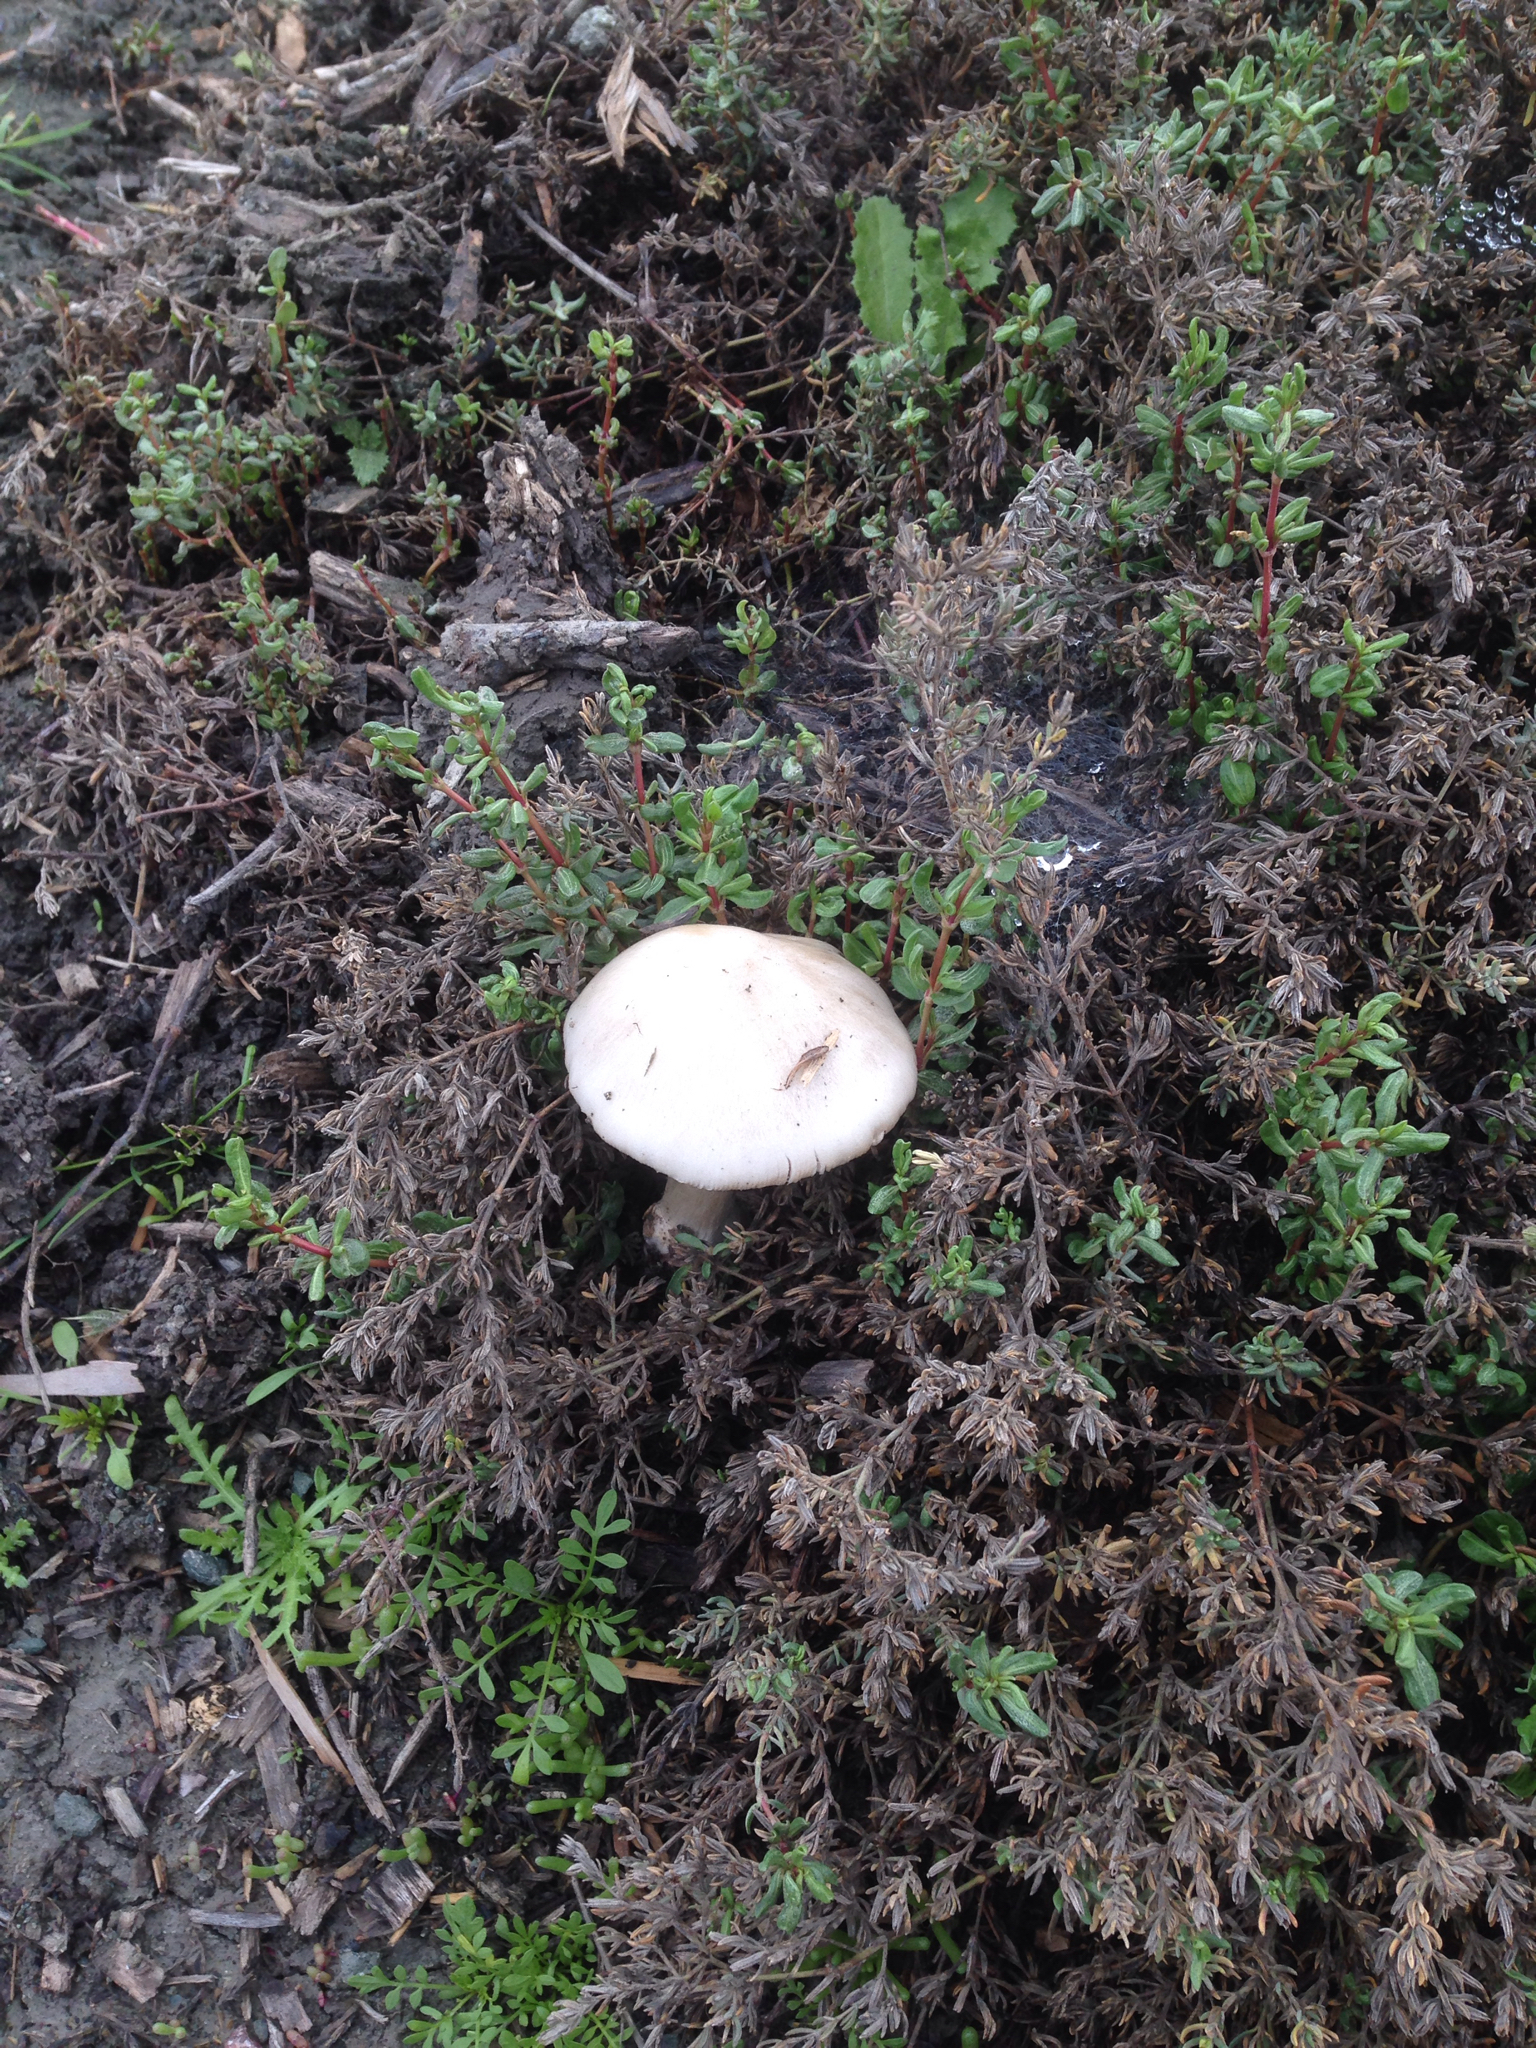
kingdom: Fungi
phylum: Basidiomycota
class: Agaricomycetes
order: Agaricales
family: Pluteaceae
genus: Volvopluteus
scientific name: Volvopluteus gloiocephalus
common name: Stubble rosegill
